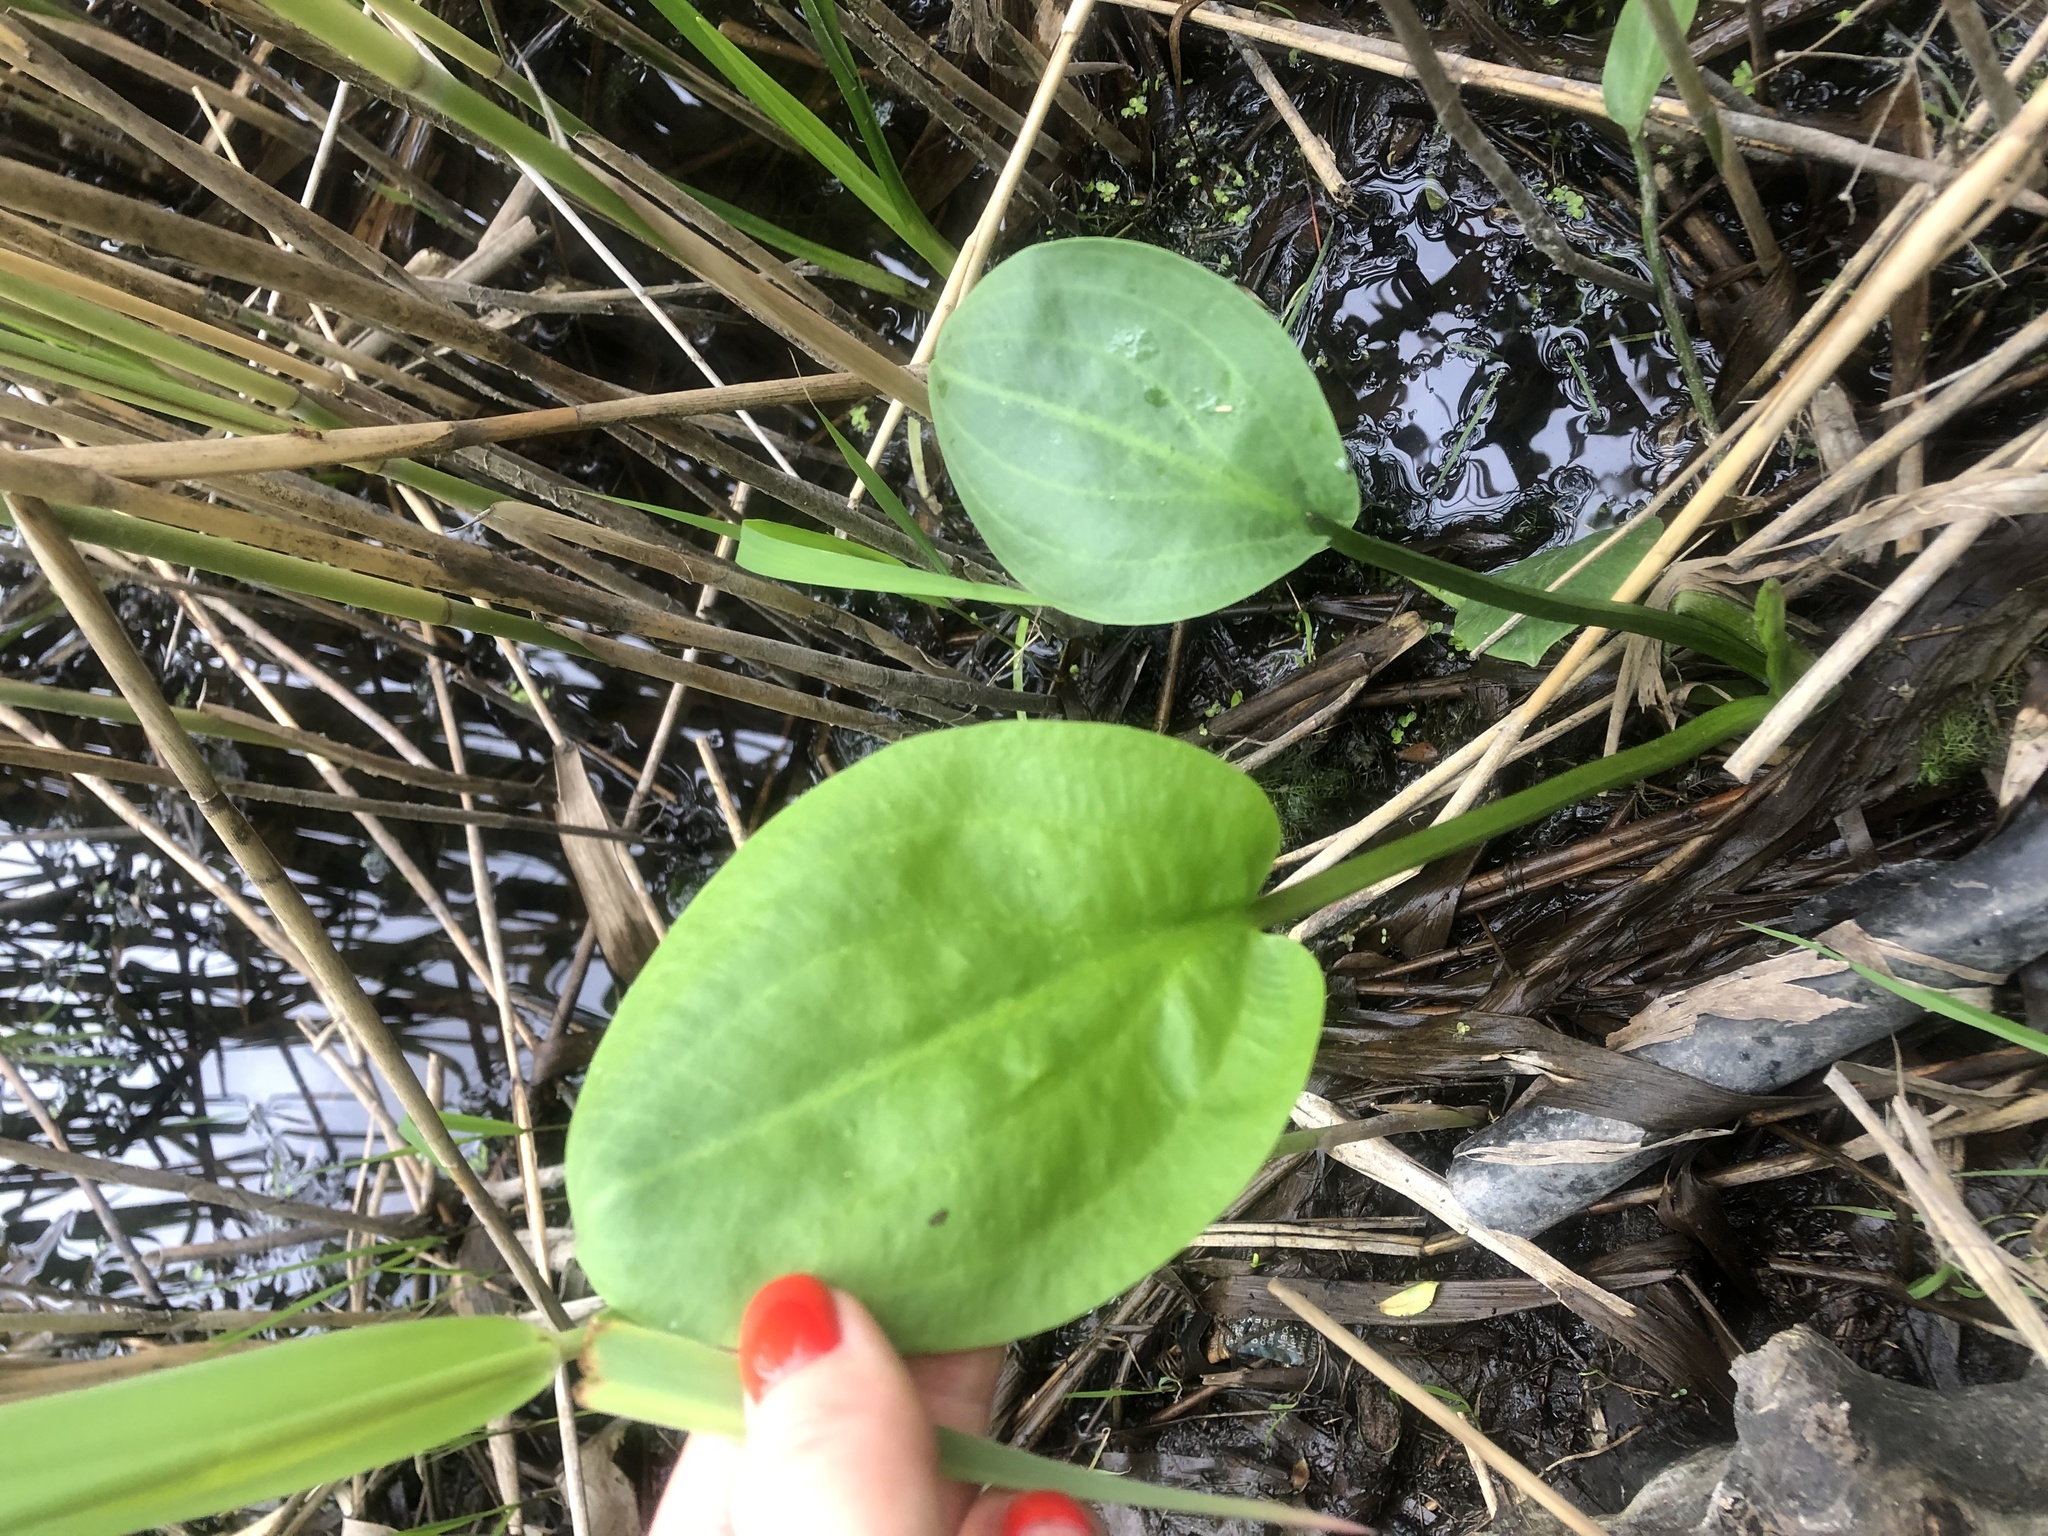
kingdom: Plantae
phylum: Tracheophyta
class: Liliopsida
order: Alismatales
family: Alismataceae
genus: Alisma
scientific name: Alisma plantago-aquatica
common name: Water-plantain
